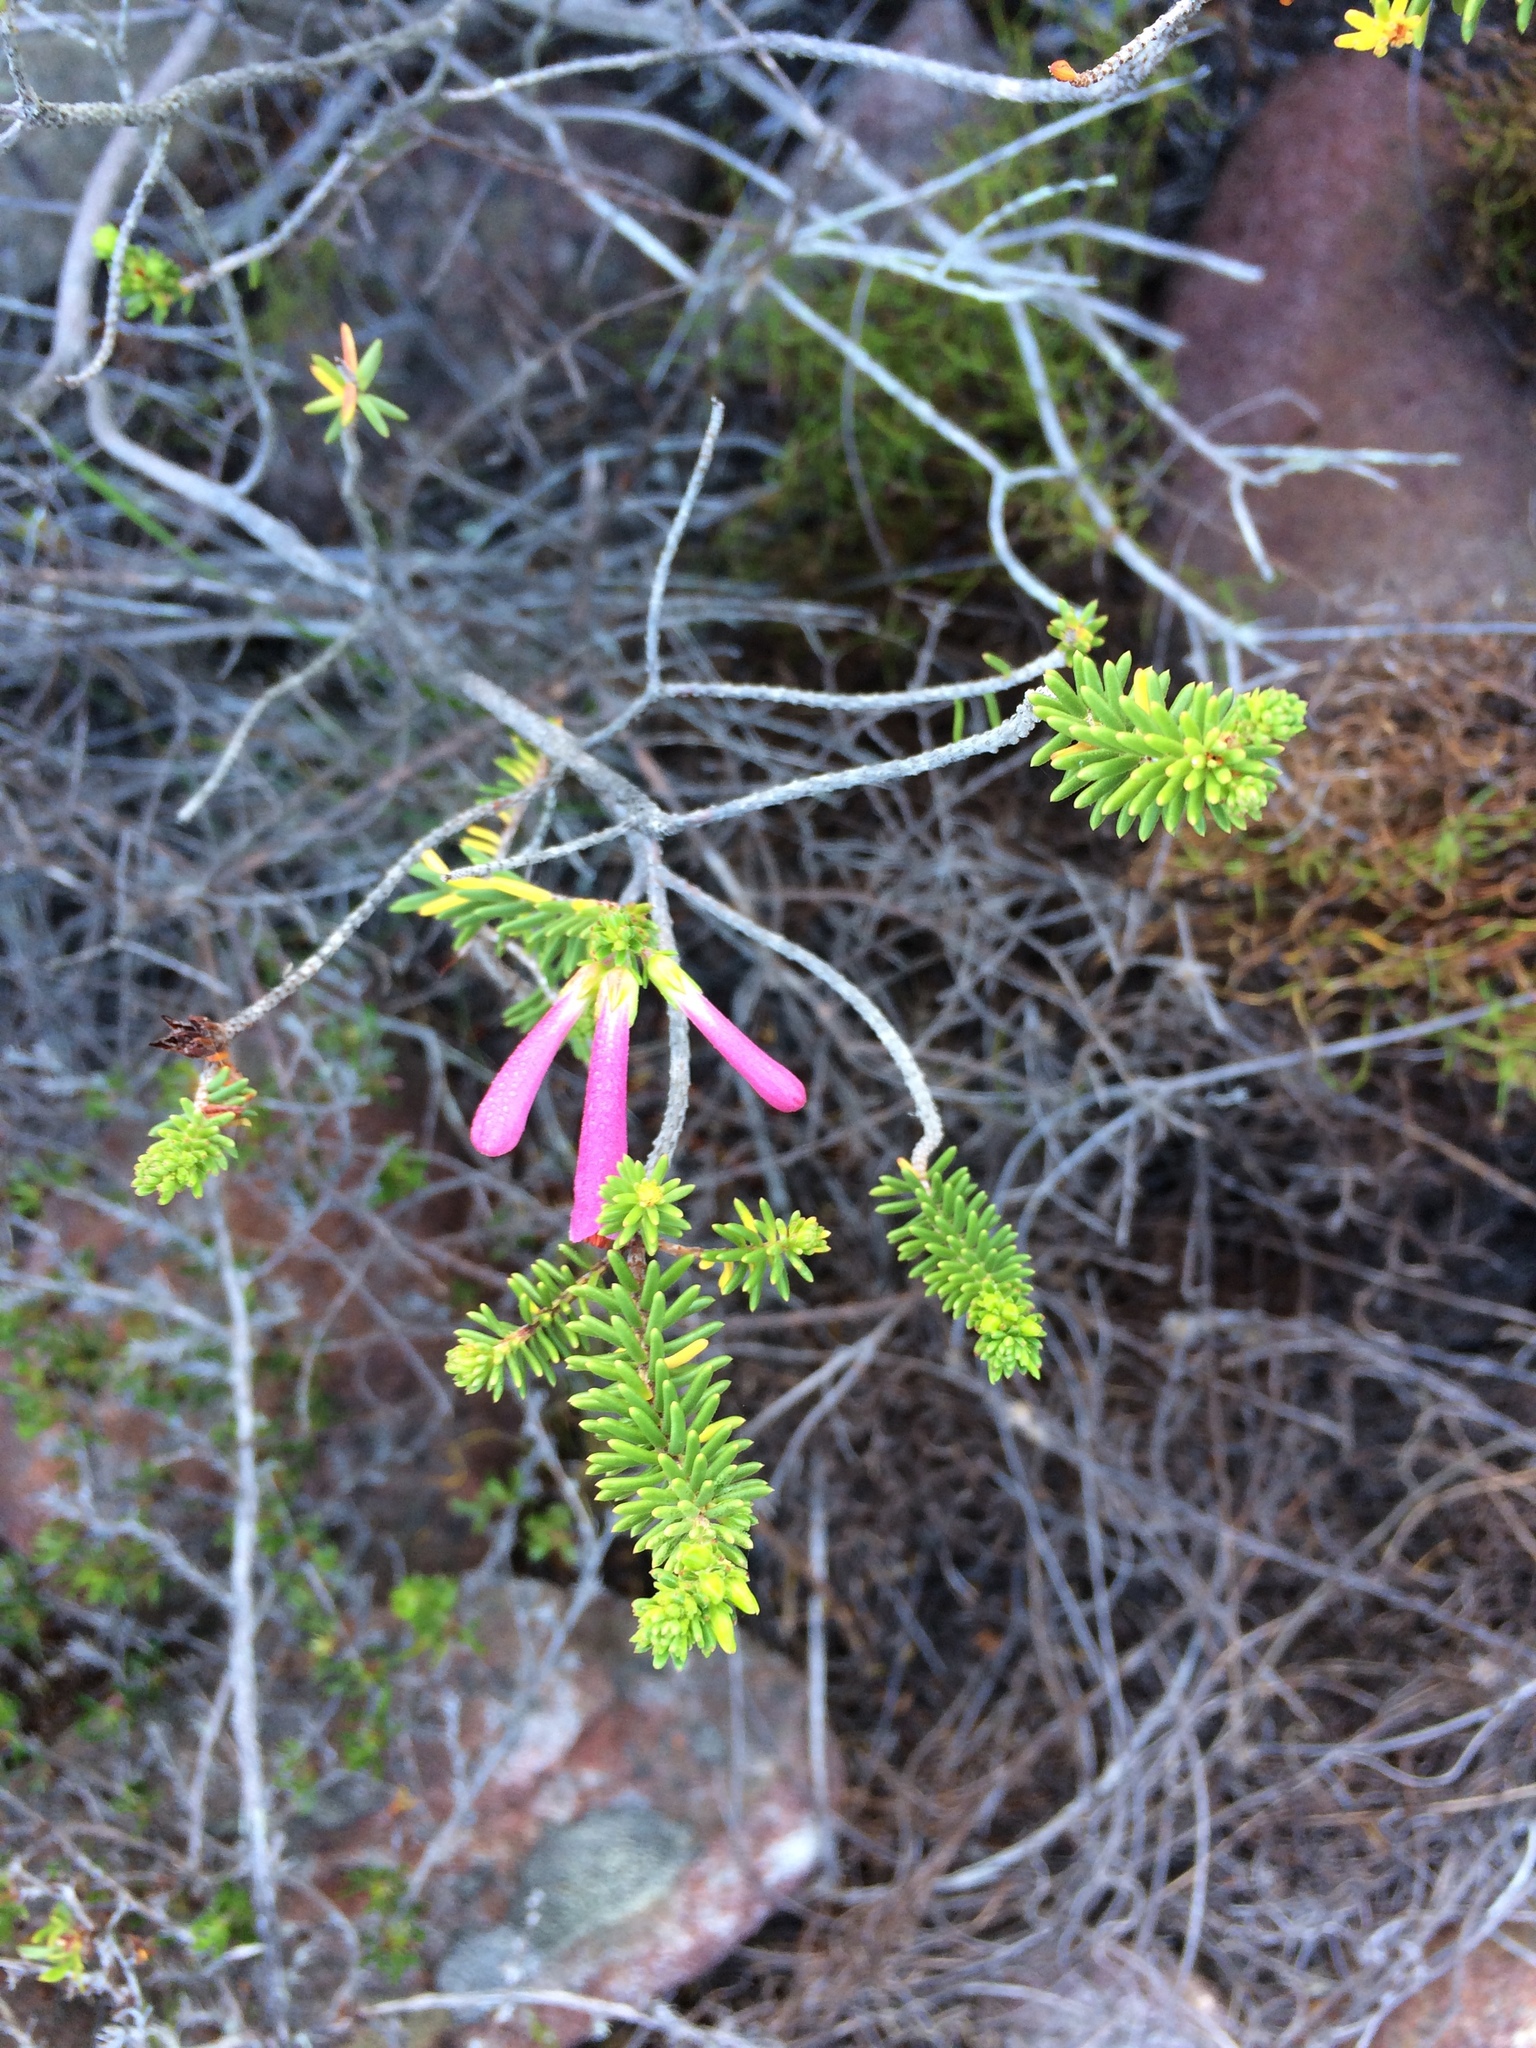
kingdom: Plantae
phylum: Tracheophyta
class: Magnoliopsida
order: Ericales
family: Ericaceae
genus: Erica
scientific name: Erica abietina
